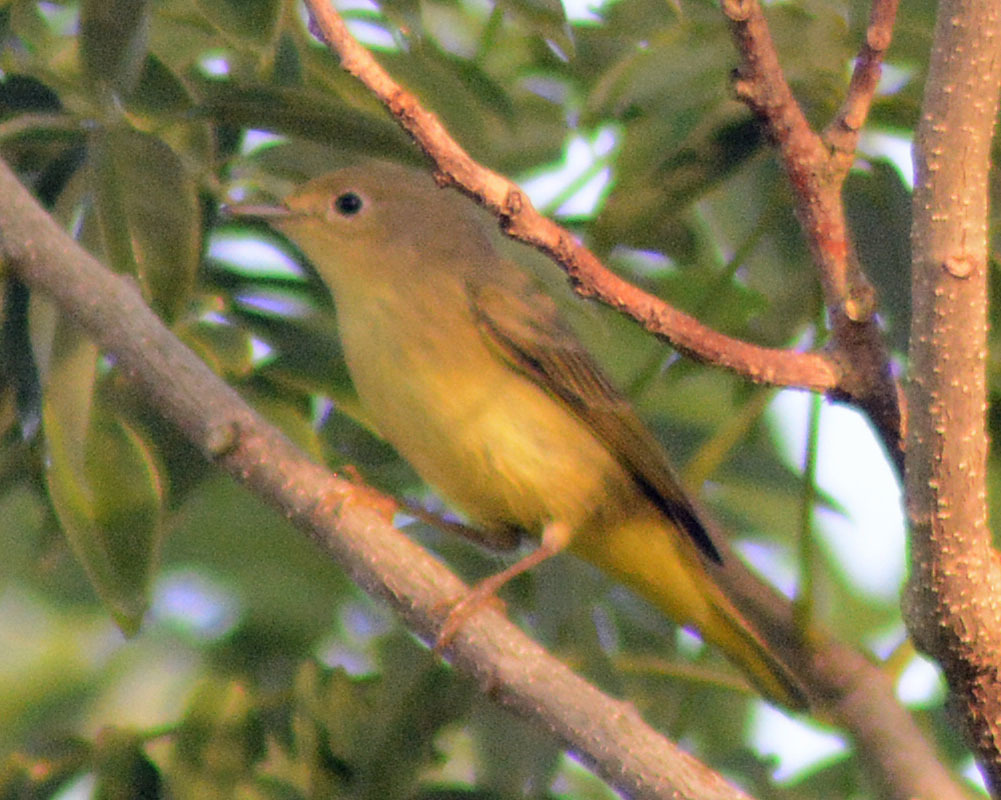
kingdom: Animalia
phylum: Chordata
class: Aves
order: Passeriformes
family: Parulidae
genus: Setophaga
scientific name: Setophaga petechia
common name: Yellow warbler
